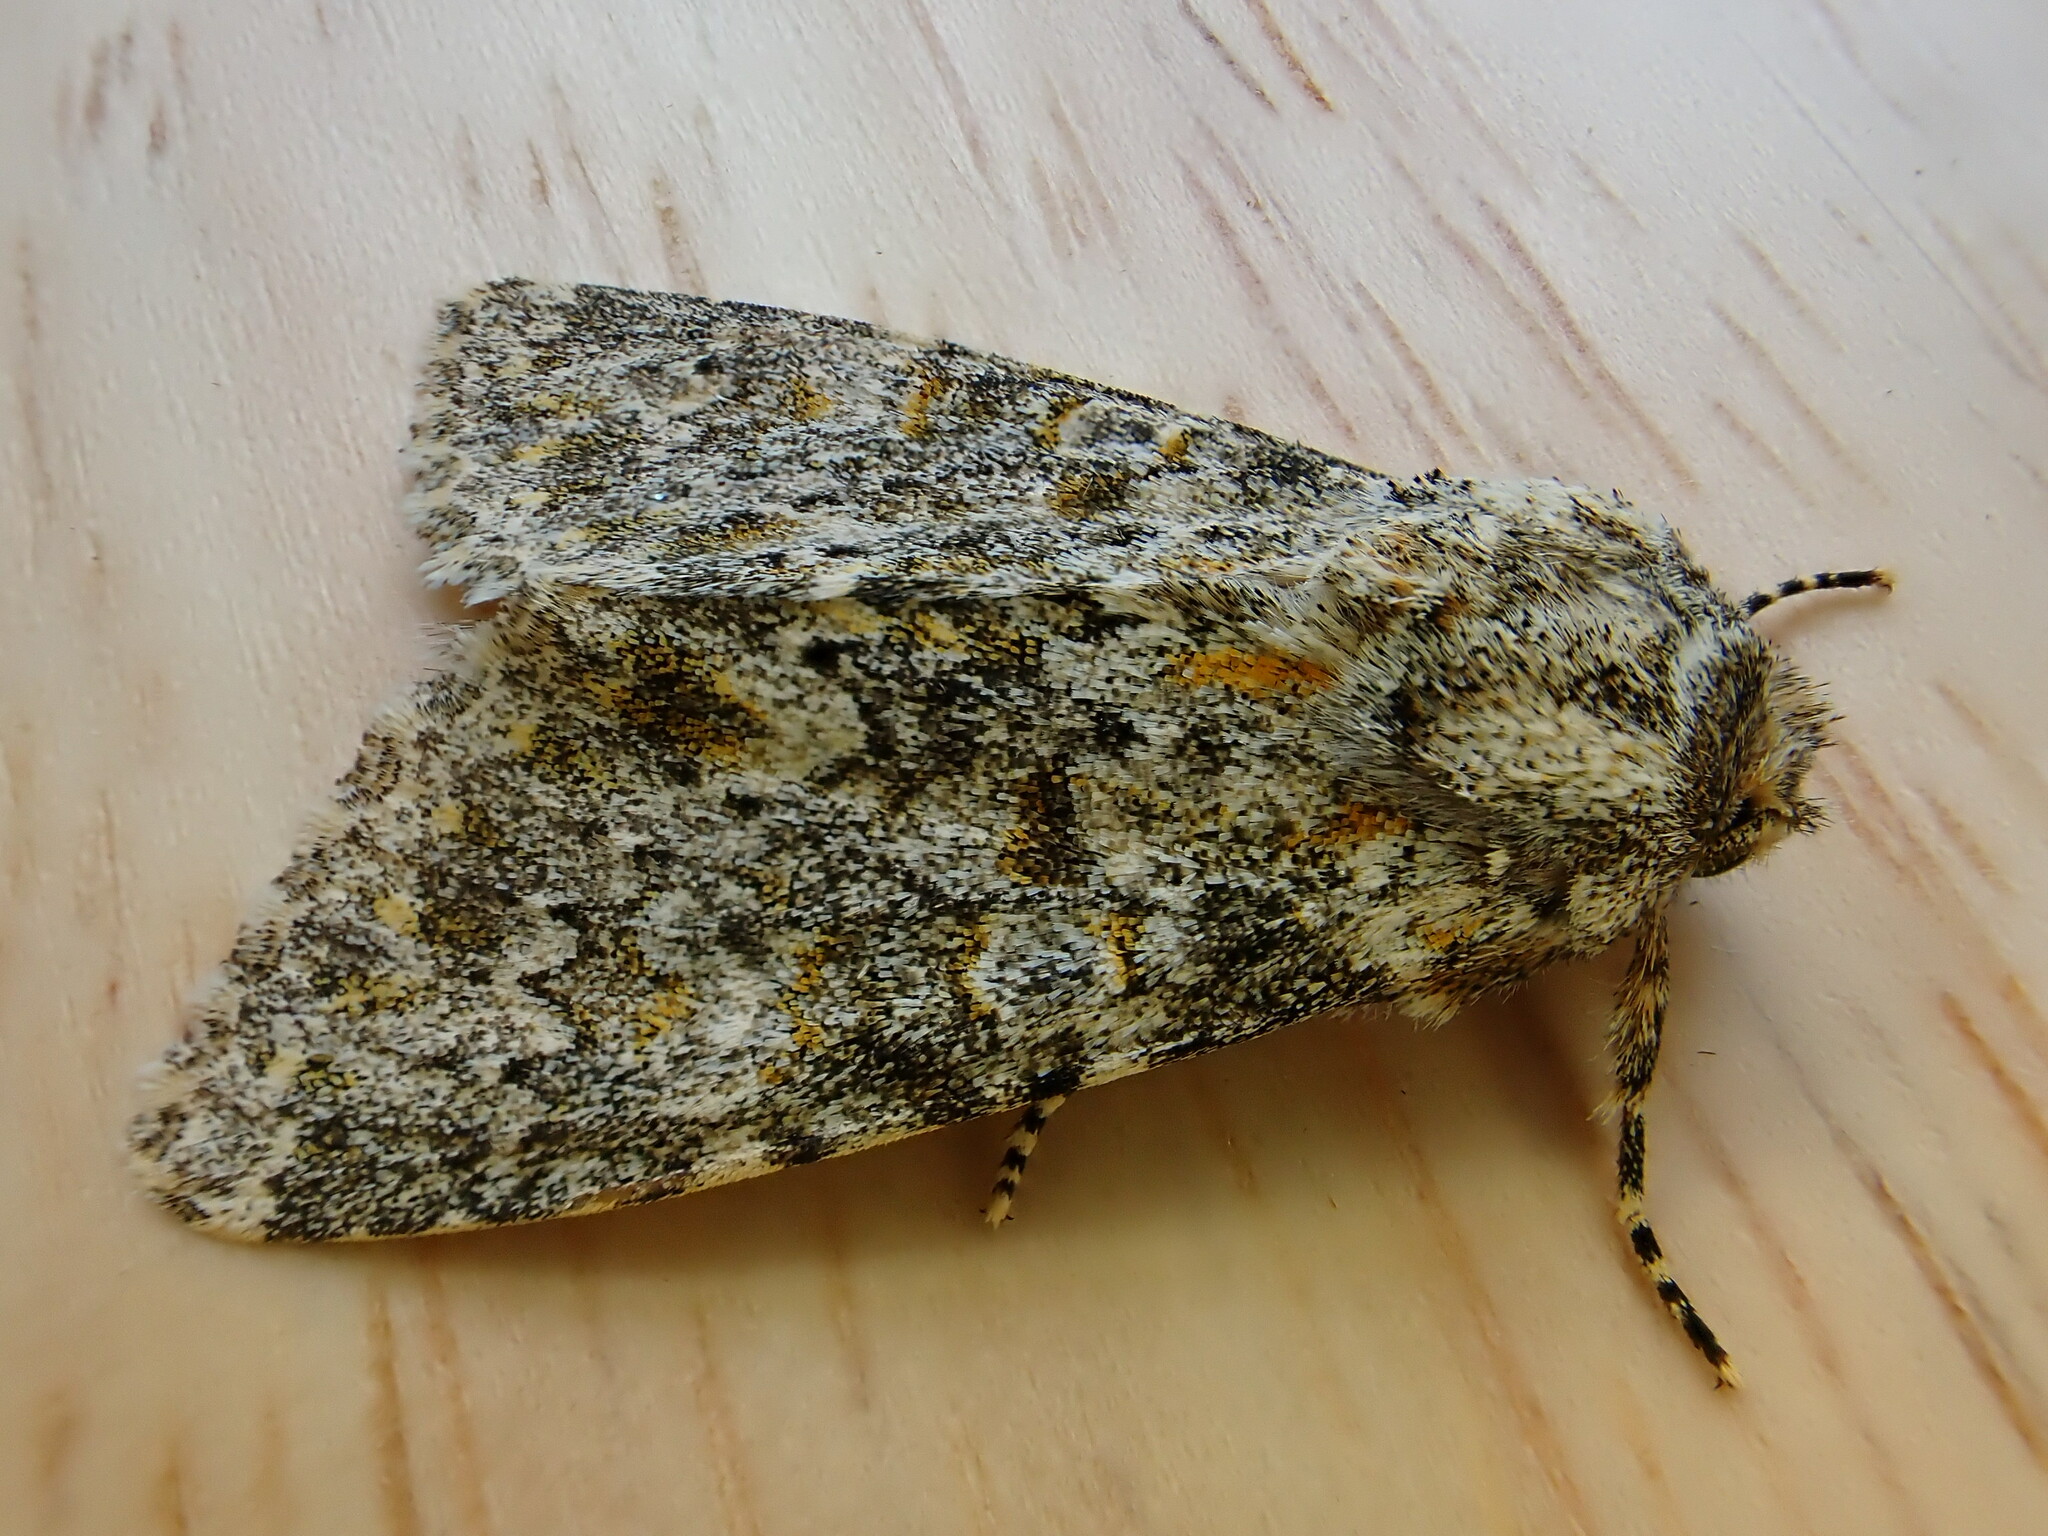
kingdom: Animalia
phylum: Arthropoda
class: Insecta
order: Lepidoptera
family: Noctuidae
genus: Polymixis
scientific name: Polymixis flavicincta
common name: Large ranunculus
